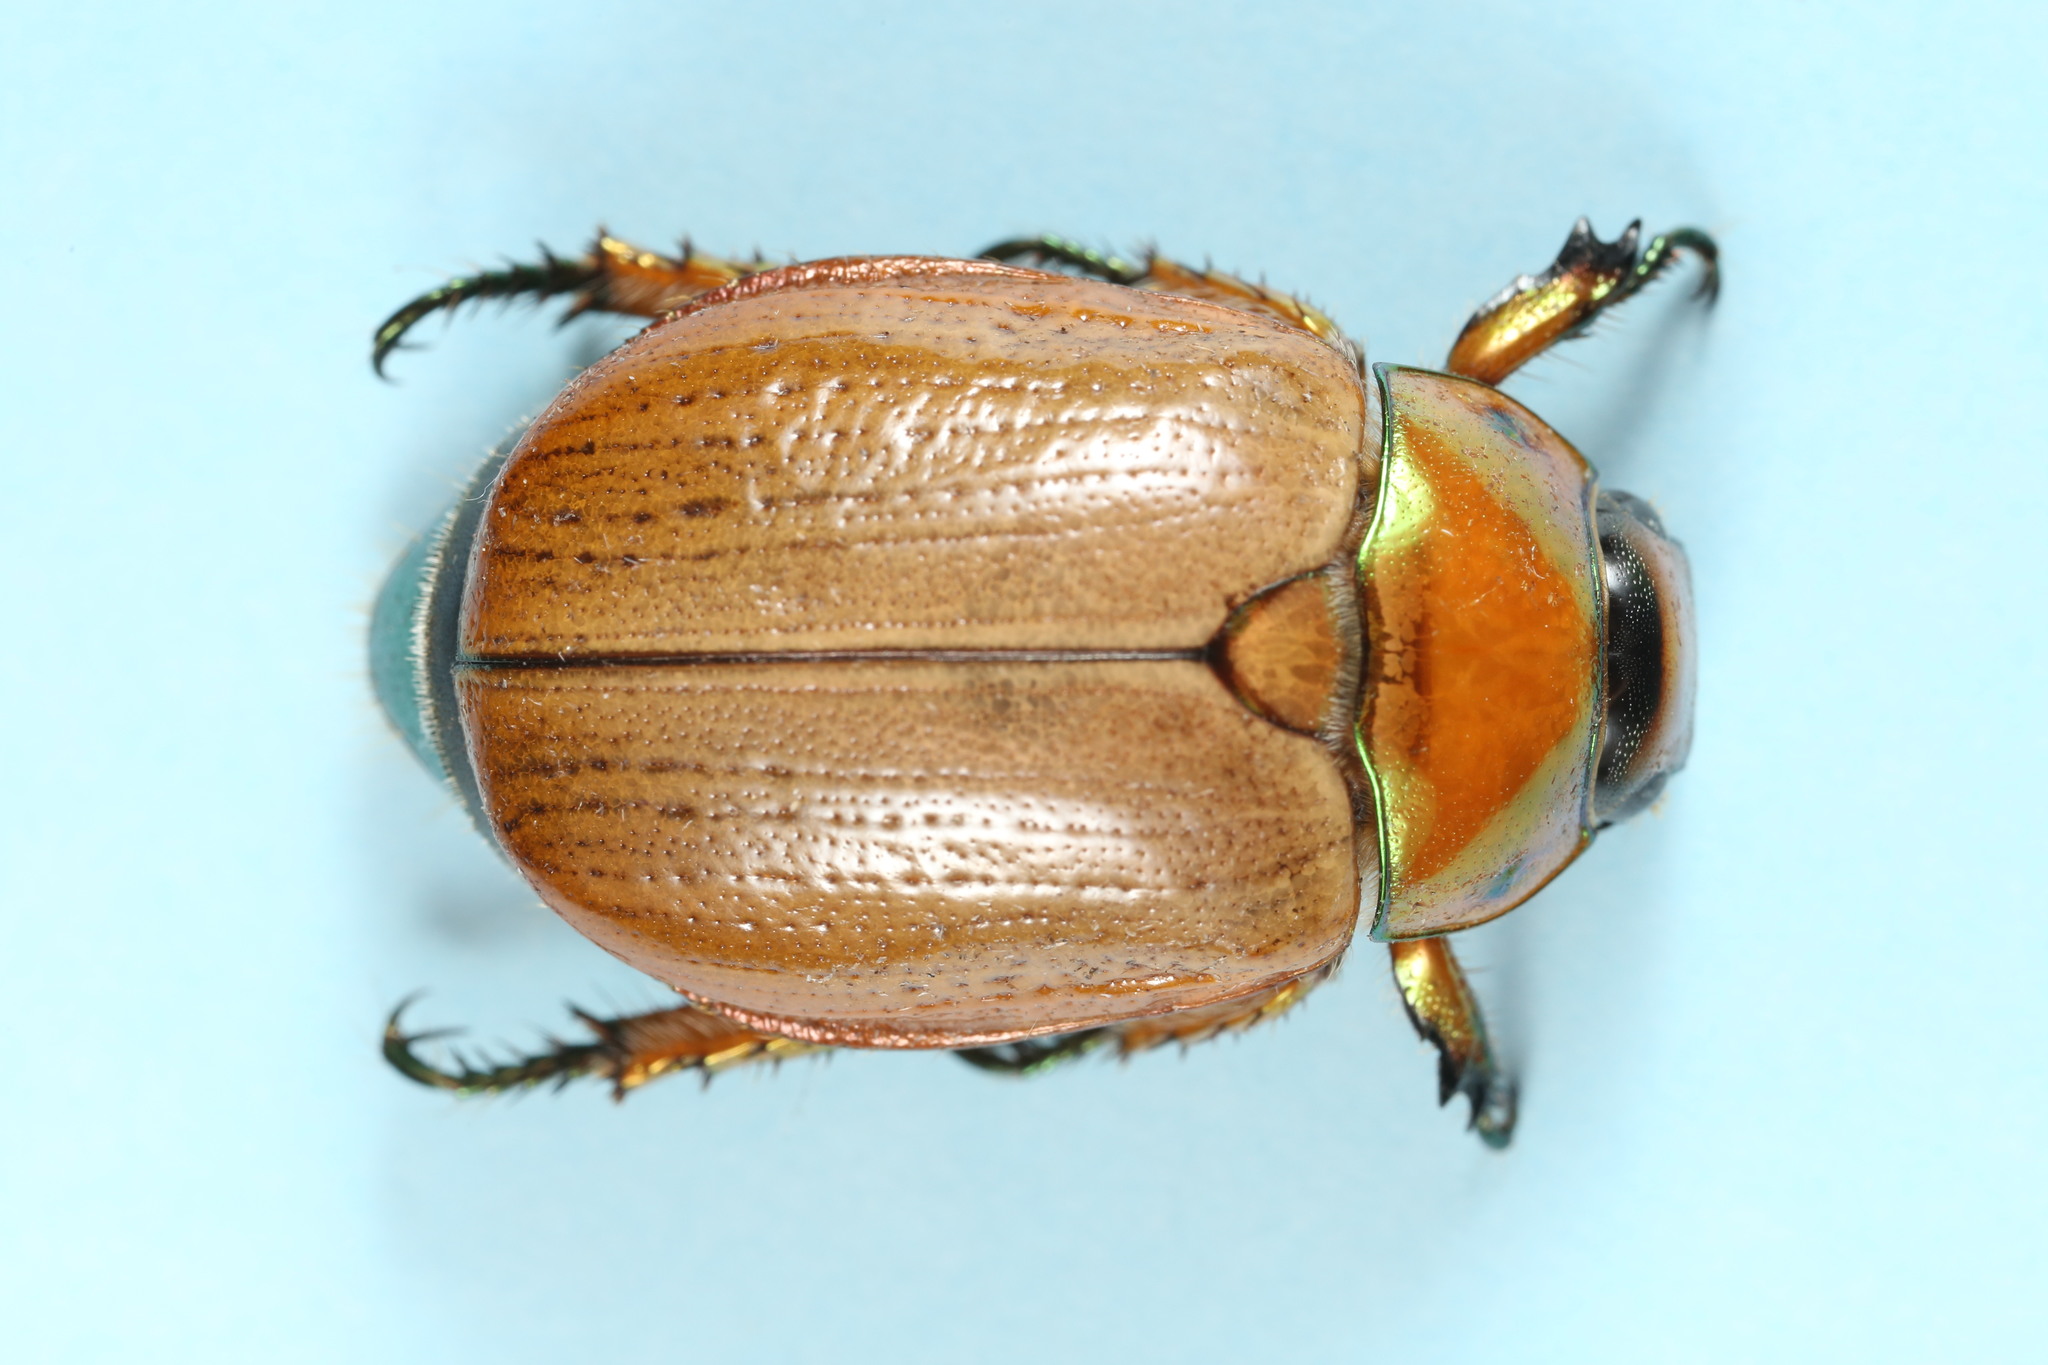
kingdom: Animalia
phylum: Arthropoda
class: Insecta
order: Coleoptera
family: Scarabaeidae
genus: Anoplognathus
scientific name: Anoplognathus brunnipennis
